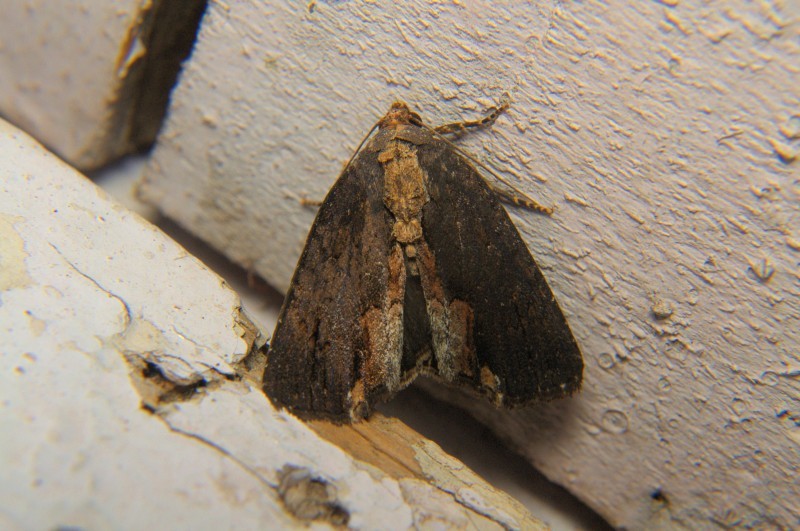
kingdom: Animalia
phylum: Arthropoda
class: Insecta
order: Lepidoptera
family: Noctuidae
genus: Dipterygina
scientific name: Dipterygina indica
